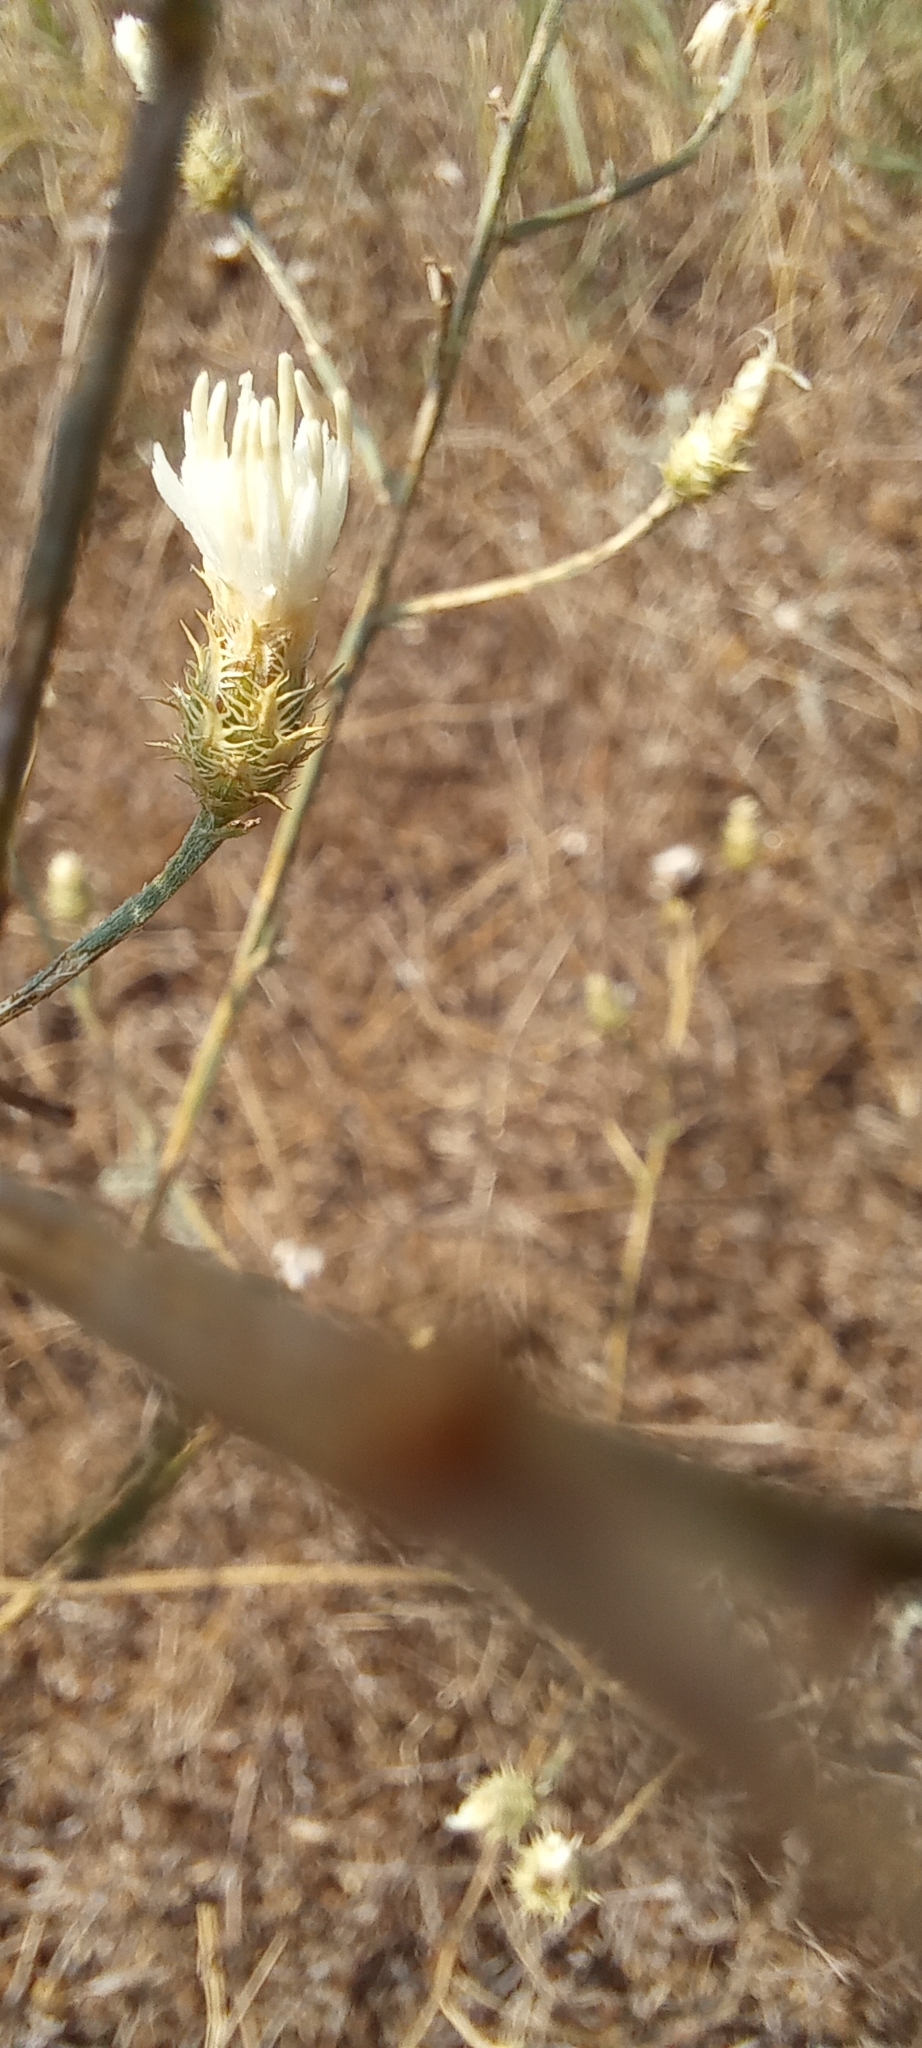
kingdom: Plantae
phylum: Tracheophyta
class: Magnoliopsida
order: Asterales
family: Asteraceae
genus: Centaurea
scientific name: Centaurea diffusa
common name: Diffuse knapweed
